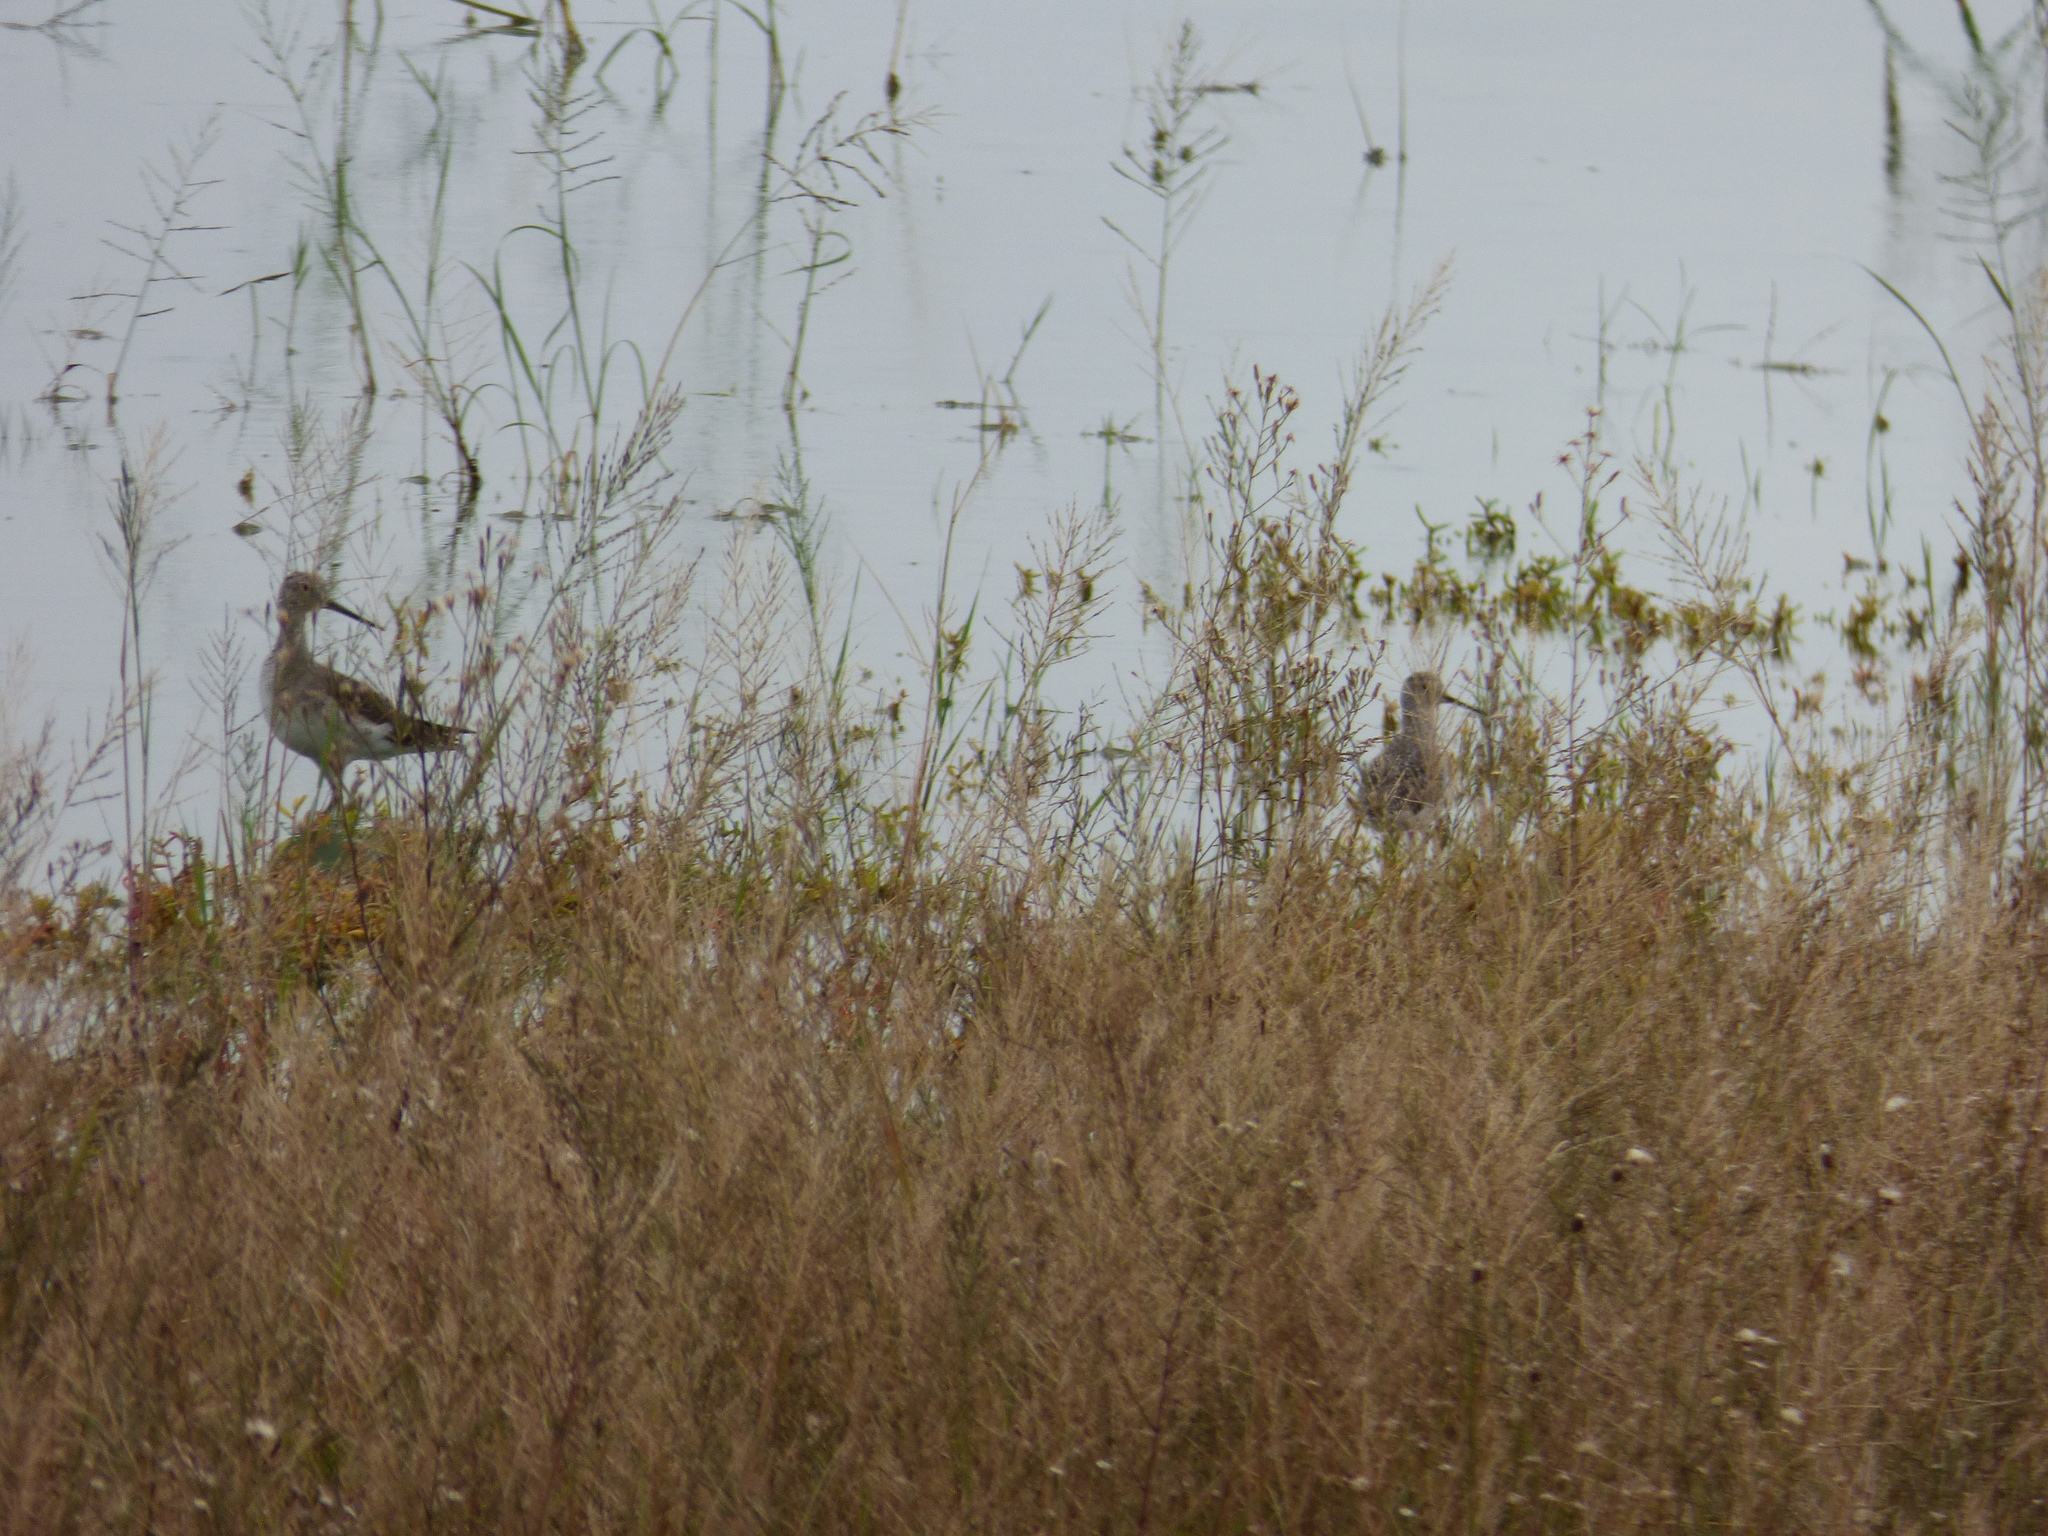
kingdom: Animalia
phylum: Chordata
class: Aves
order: Charadriiformes
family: Scolopacidae
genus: Tringa
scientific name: Tringa melanoleuca
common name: Greater yellowlegs
